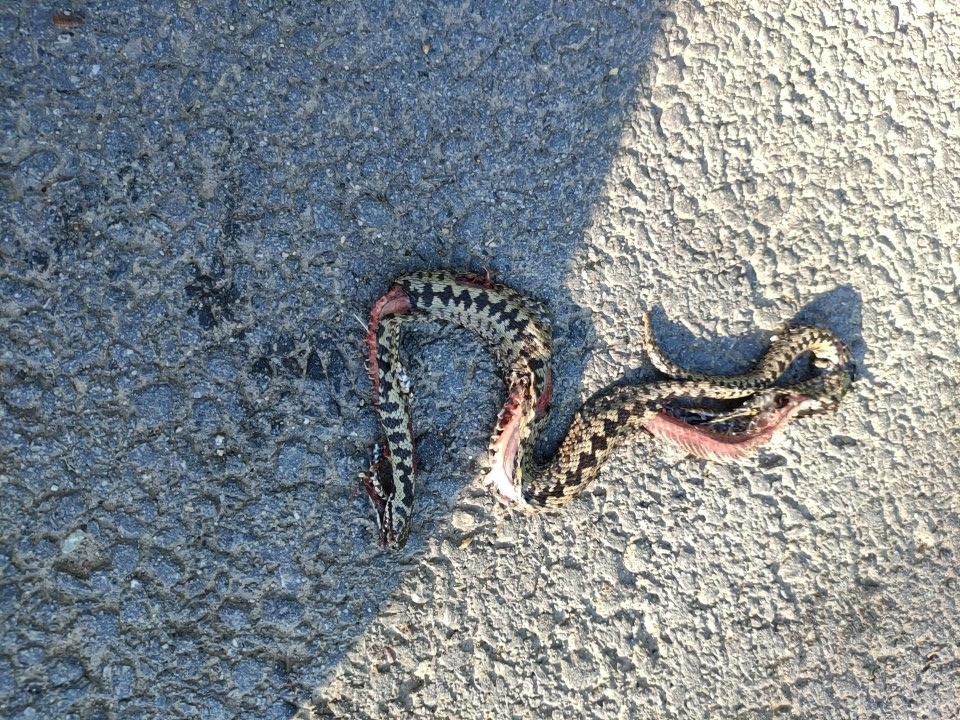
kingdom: Animalia
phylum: Chordata
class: Squamata
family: Viperidae
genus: Vipera
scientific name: Vipera berus
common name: Adder
